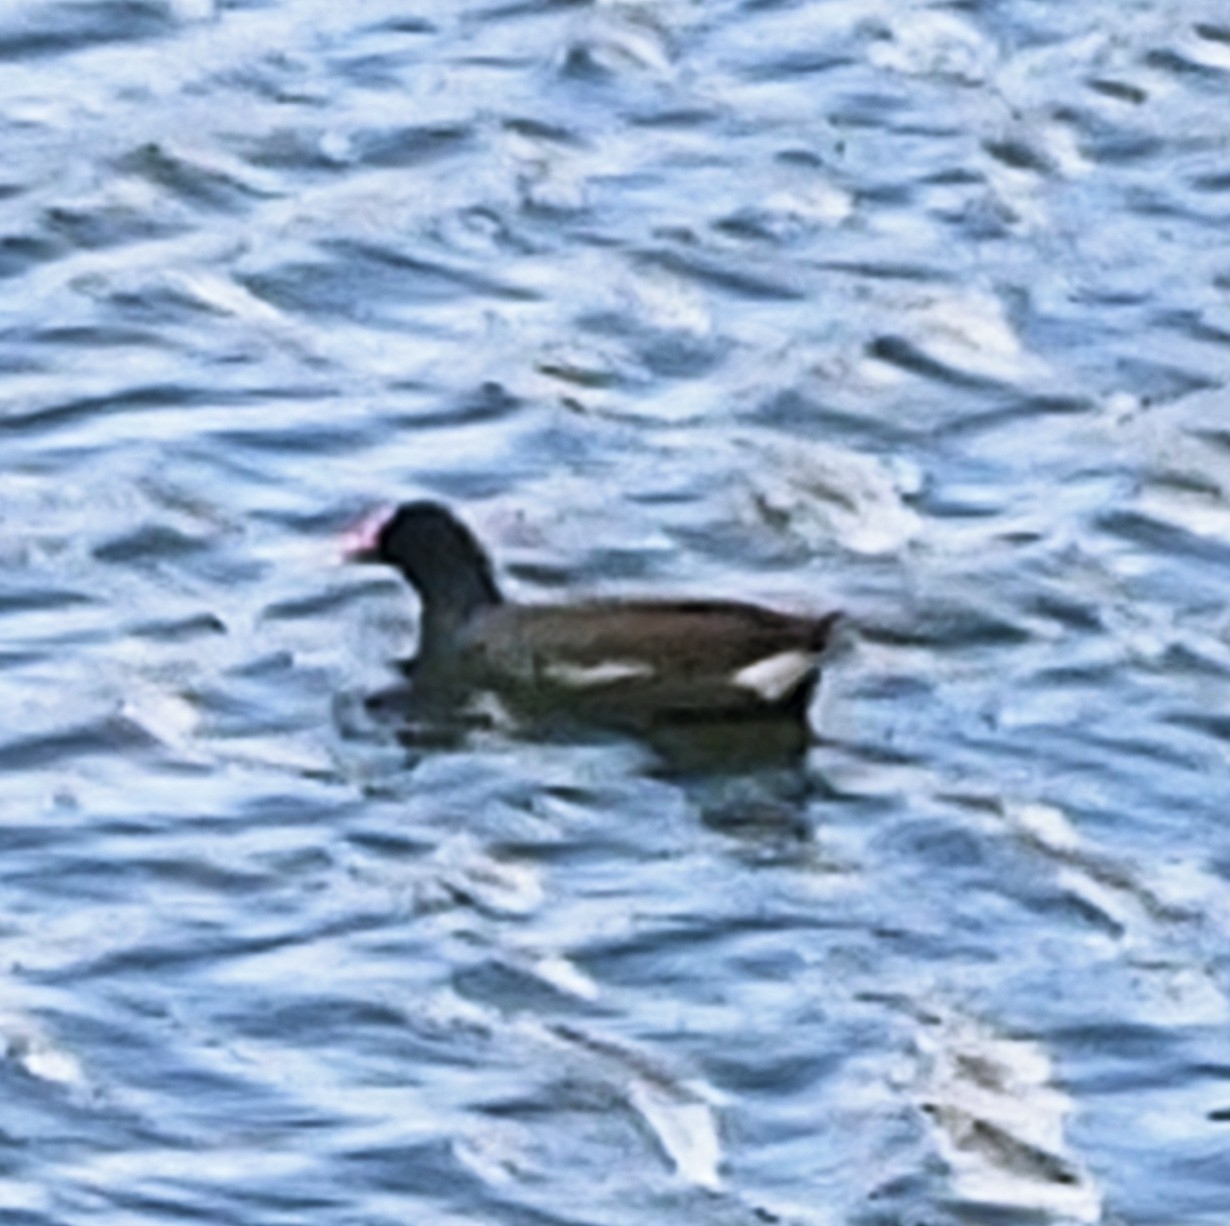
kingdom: Animalia
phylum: Chordata
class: Aves
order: Gruiformes
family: Rallidae
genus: Gallinula
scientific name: Gallinula chloropus
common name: Common moorhen
